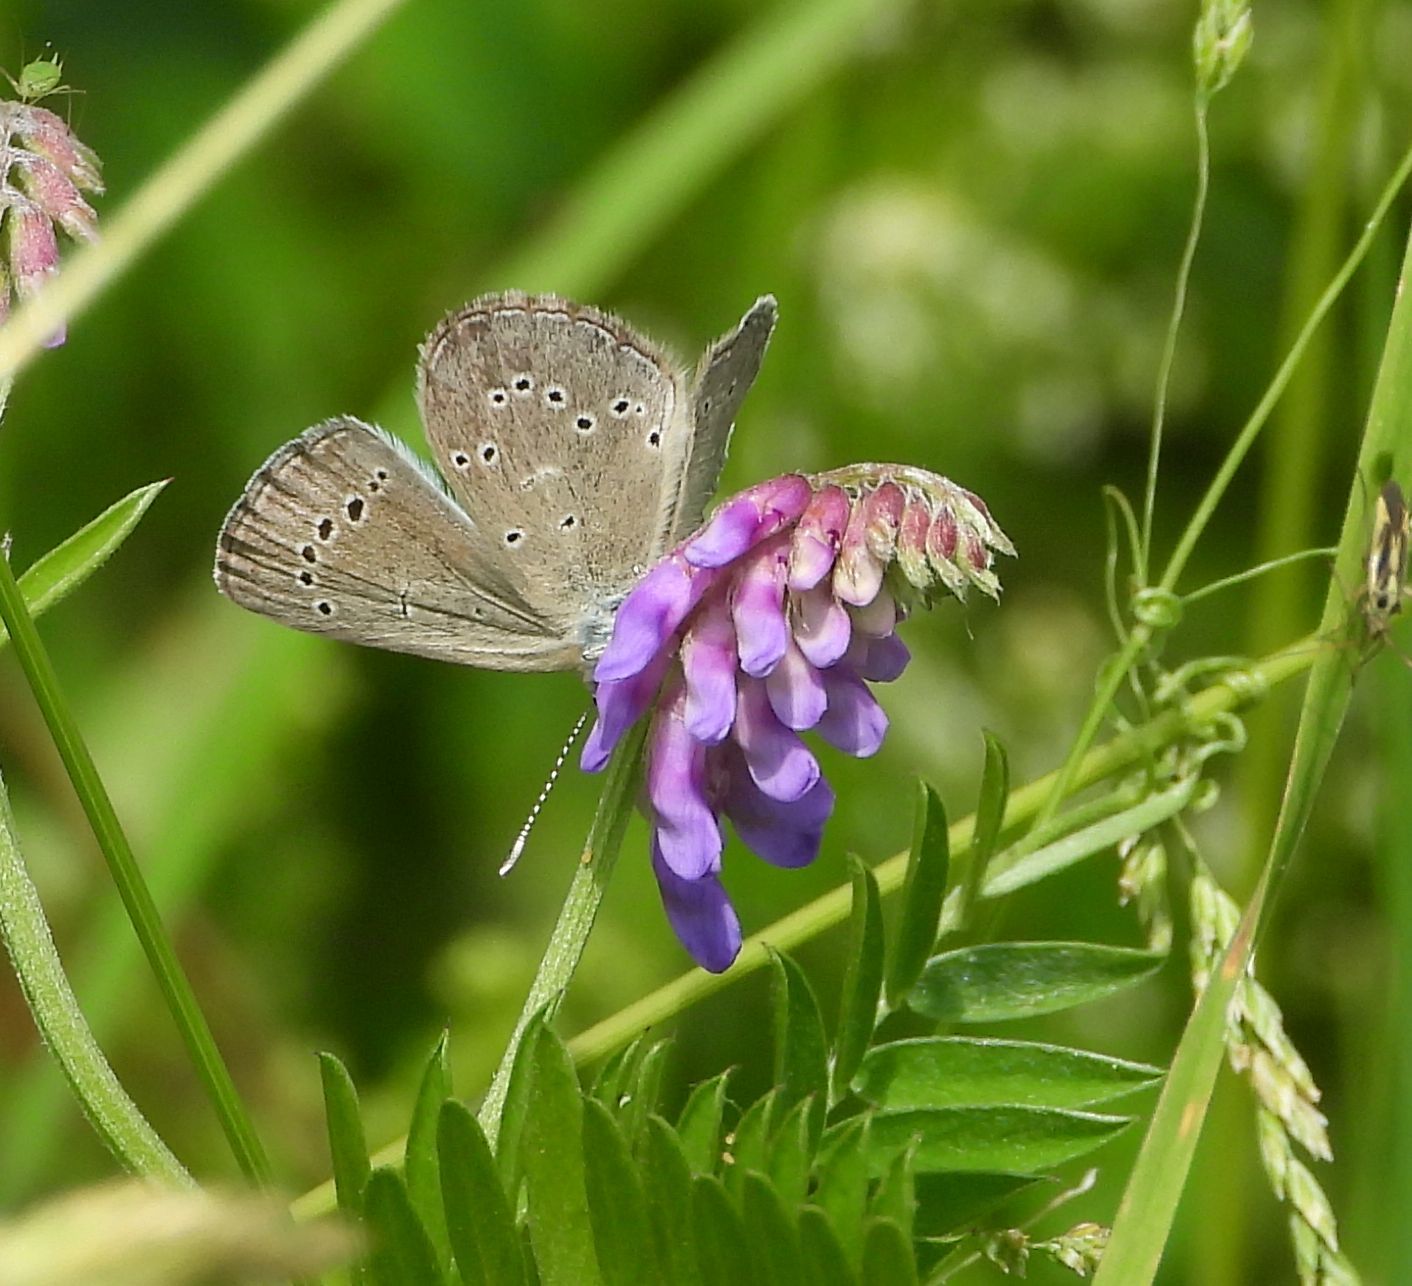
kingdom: Animalia
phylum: Arthropoda
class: Insecta
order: Lepidoptera
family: Lycaenidae
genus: Glaucopsyche
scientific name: Glaucopsyche lygdamus
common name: Silvery blue
